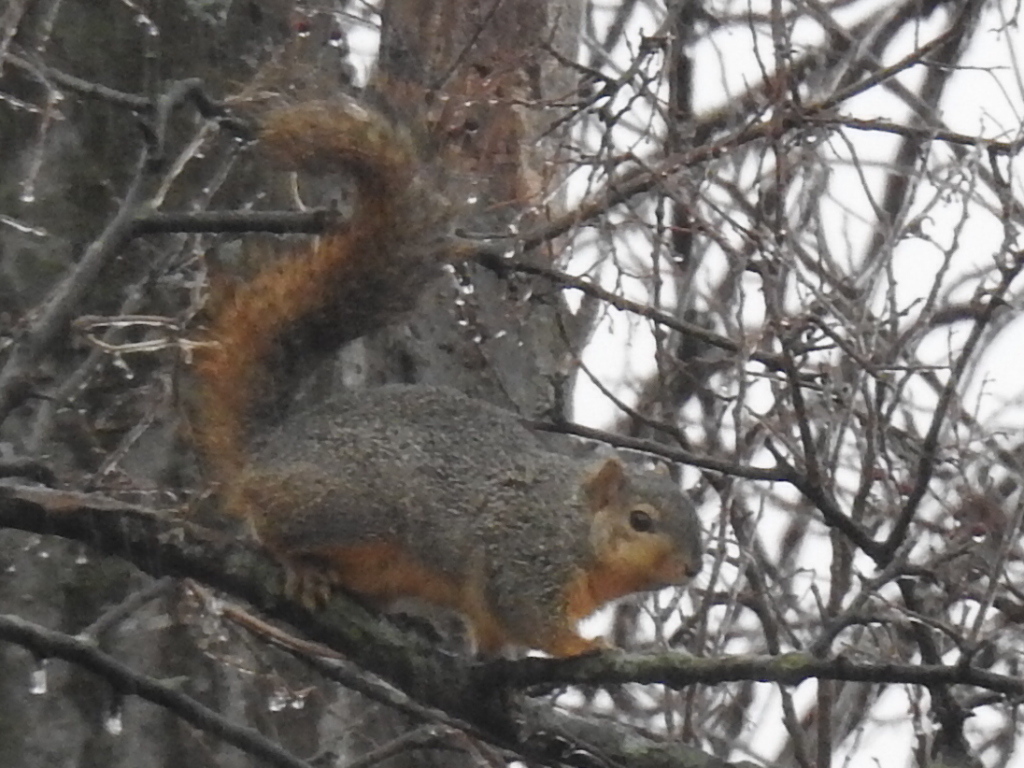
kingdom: Animalia
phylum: Chordata
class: Mammalia
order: Rodentia
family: Sciuridae
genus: Sciurus
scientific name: Sciurus niger
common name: Fox squirrel
